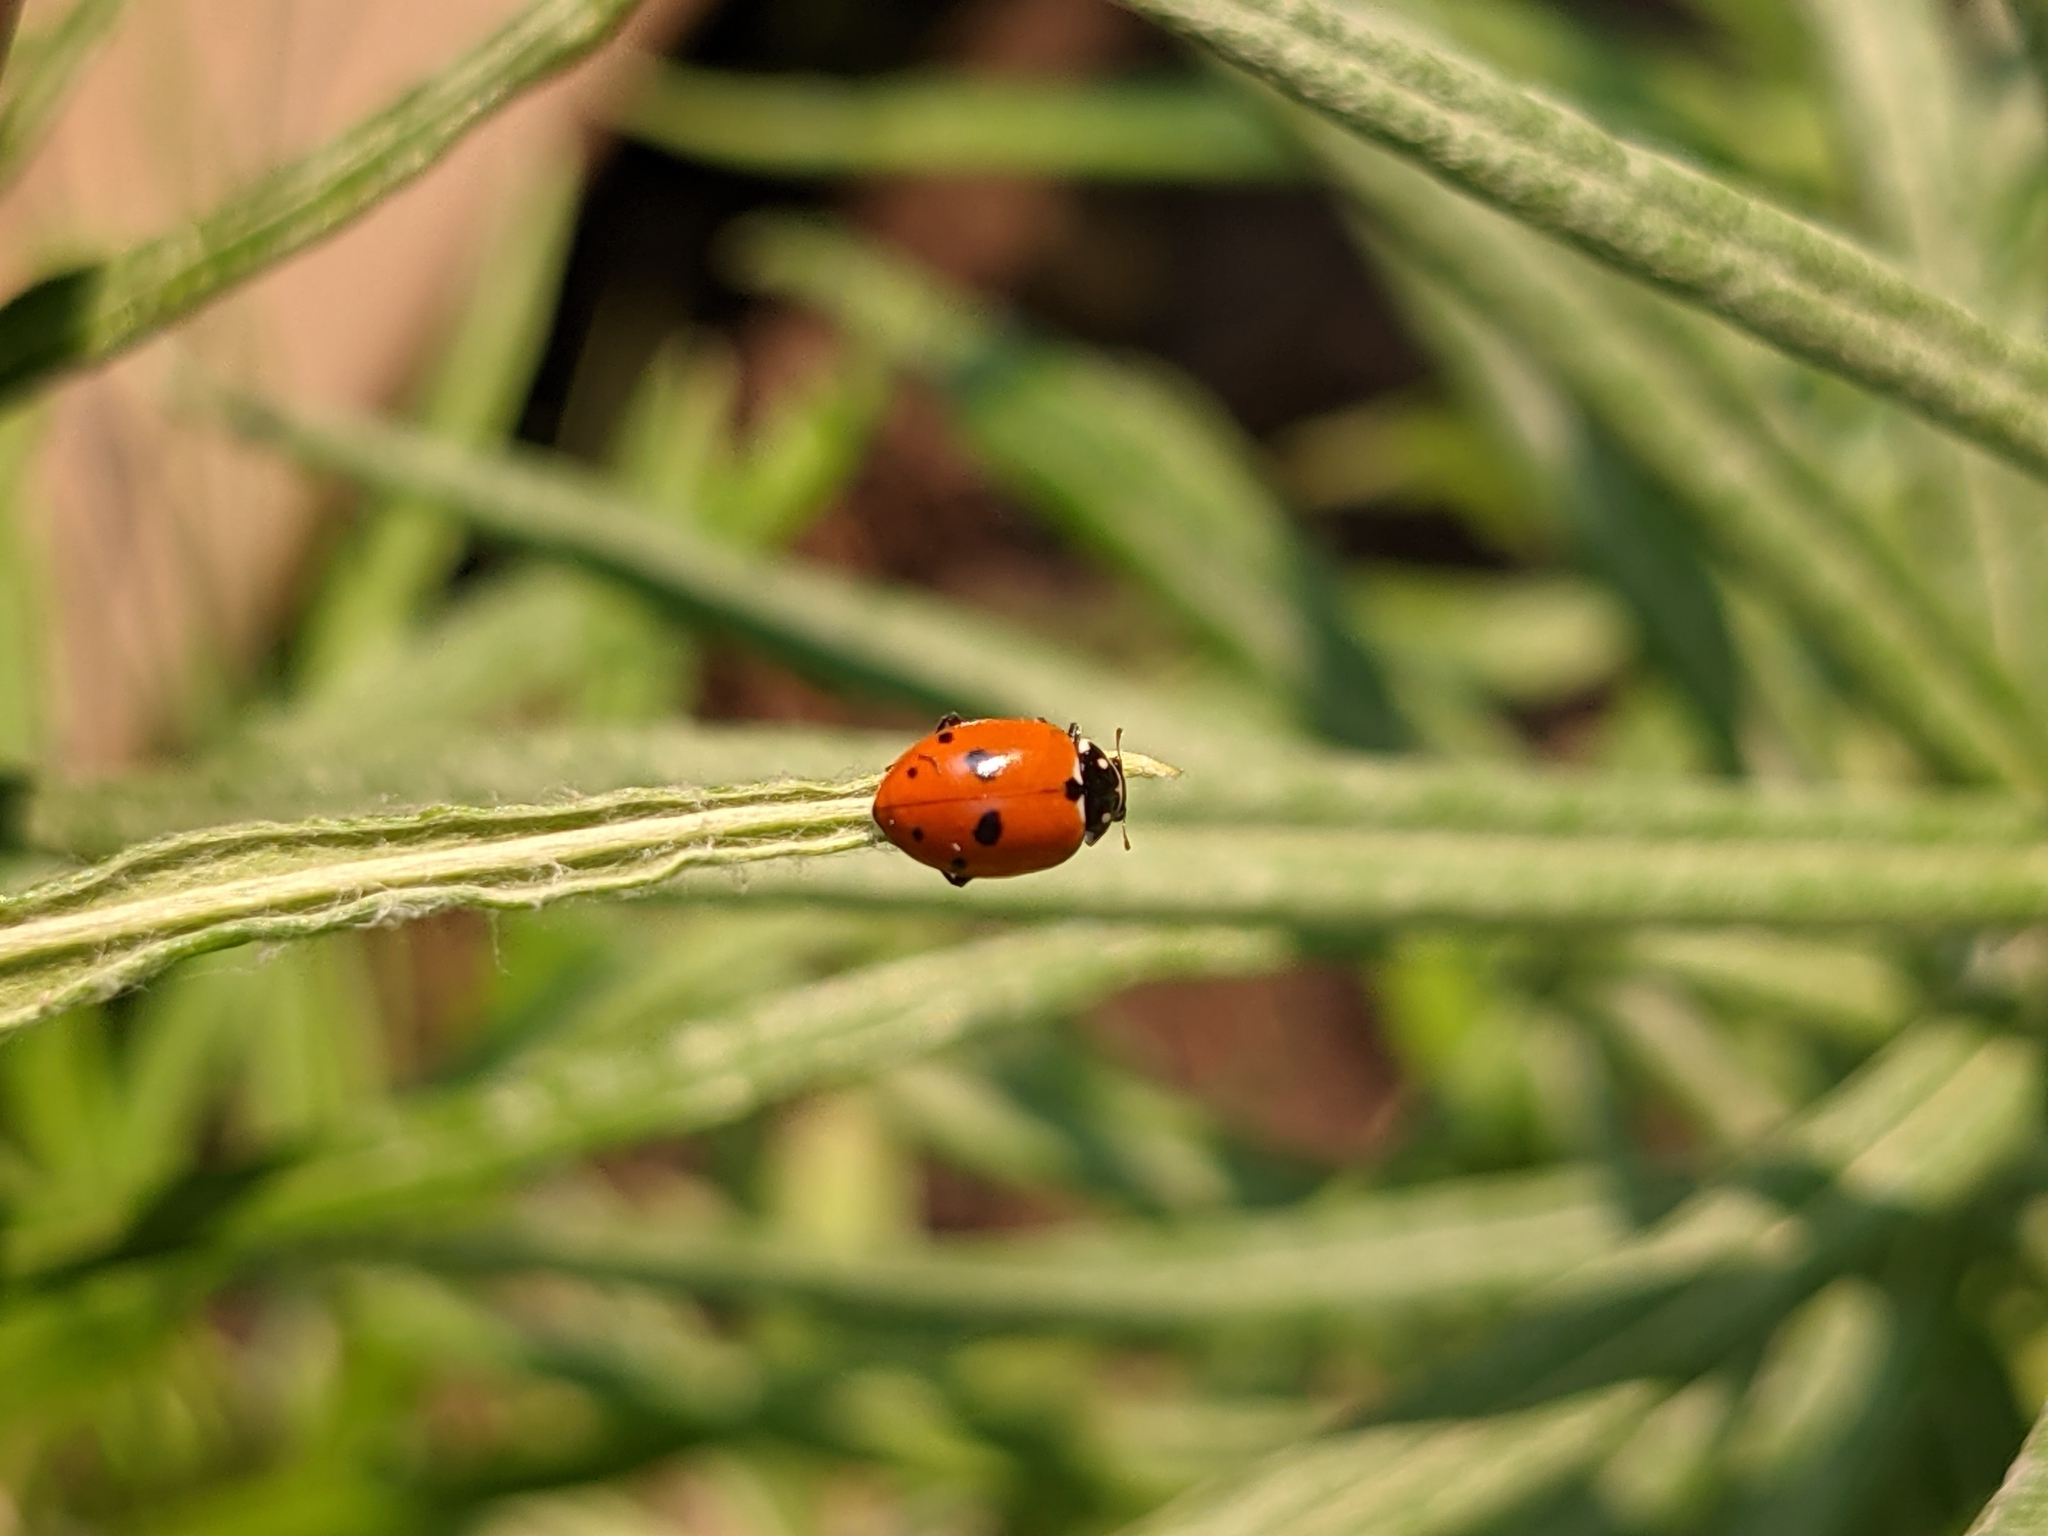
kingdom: Animalia
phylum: Arthropoda
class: Insecta
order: Coleoptera
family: Coccinellidae
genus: Coccinella
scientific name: Coccinella septempunctata
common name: Sevenspotted lady beetle
